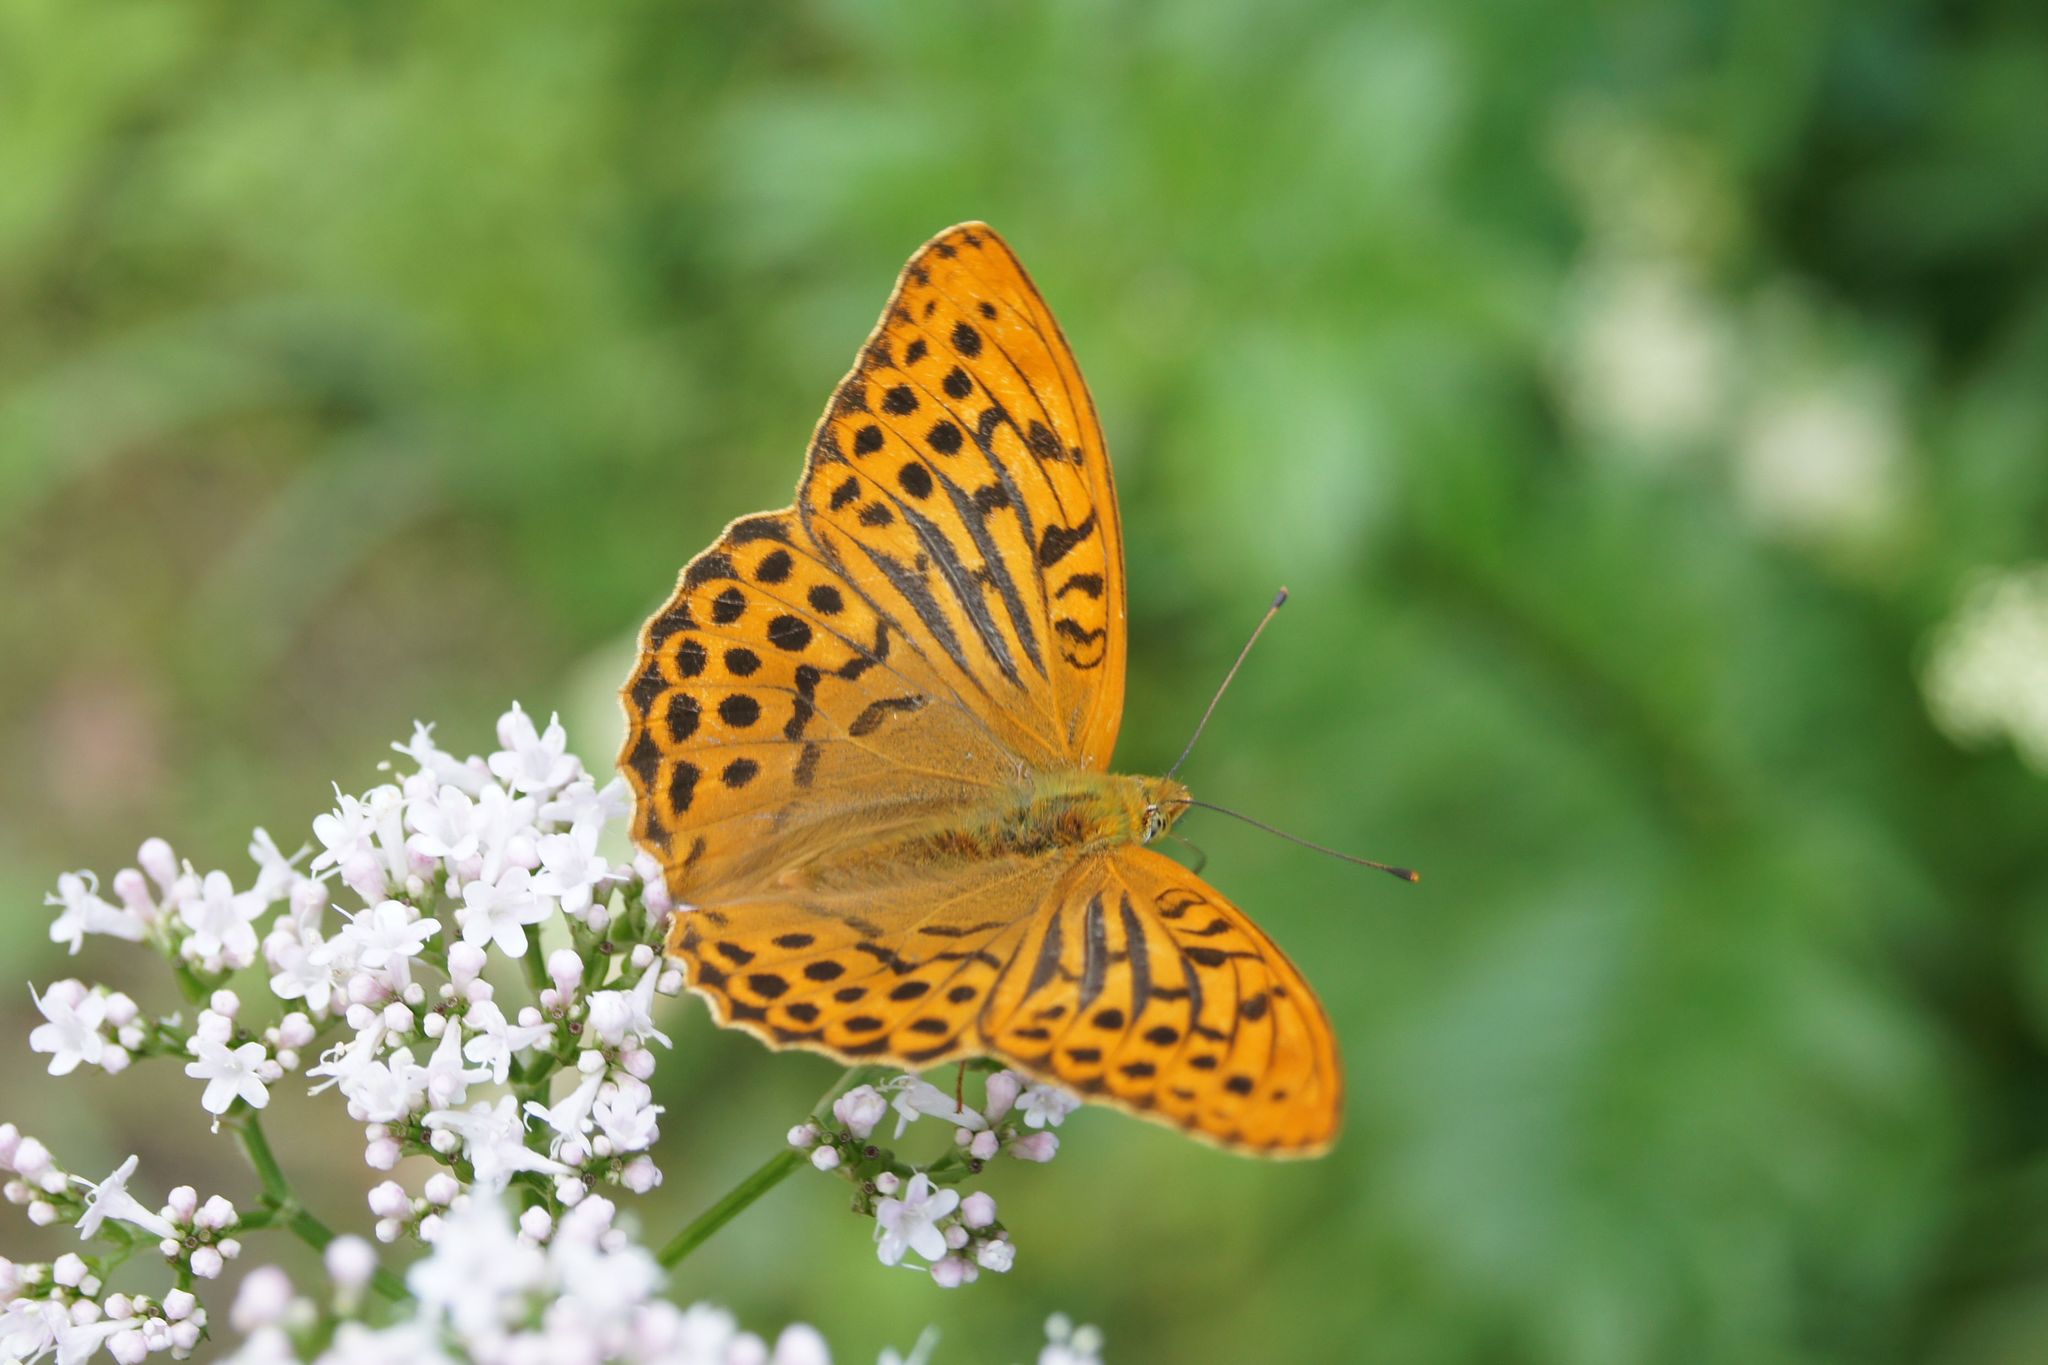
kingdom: Animalia
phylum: Arthropoda
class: Insecta
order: Lepidoptera
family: Nymphalidae
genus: Argynnis
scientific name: Argynnis paphia
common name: Silver-washed fritillary
